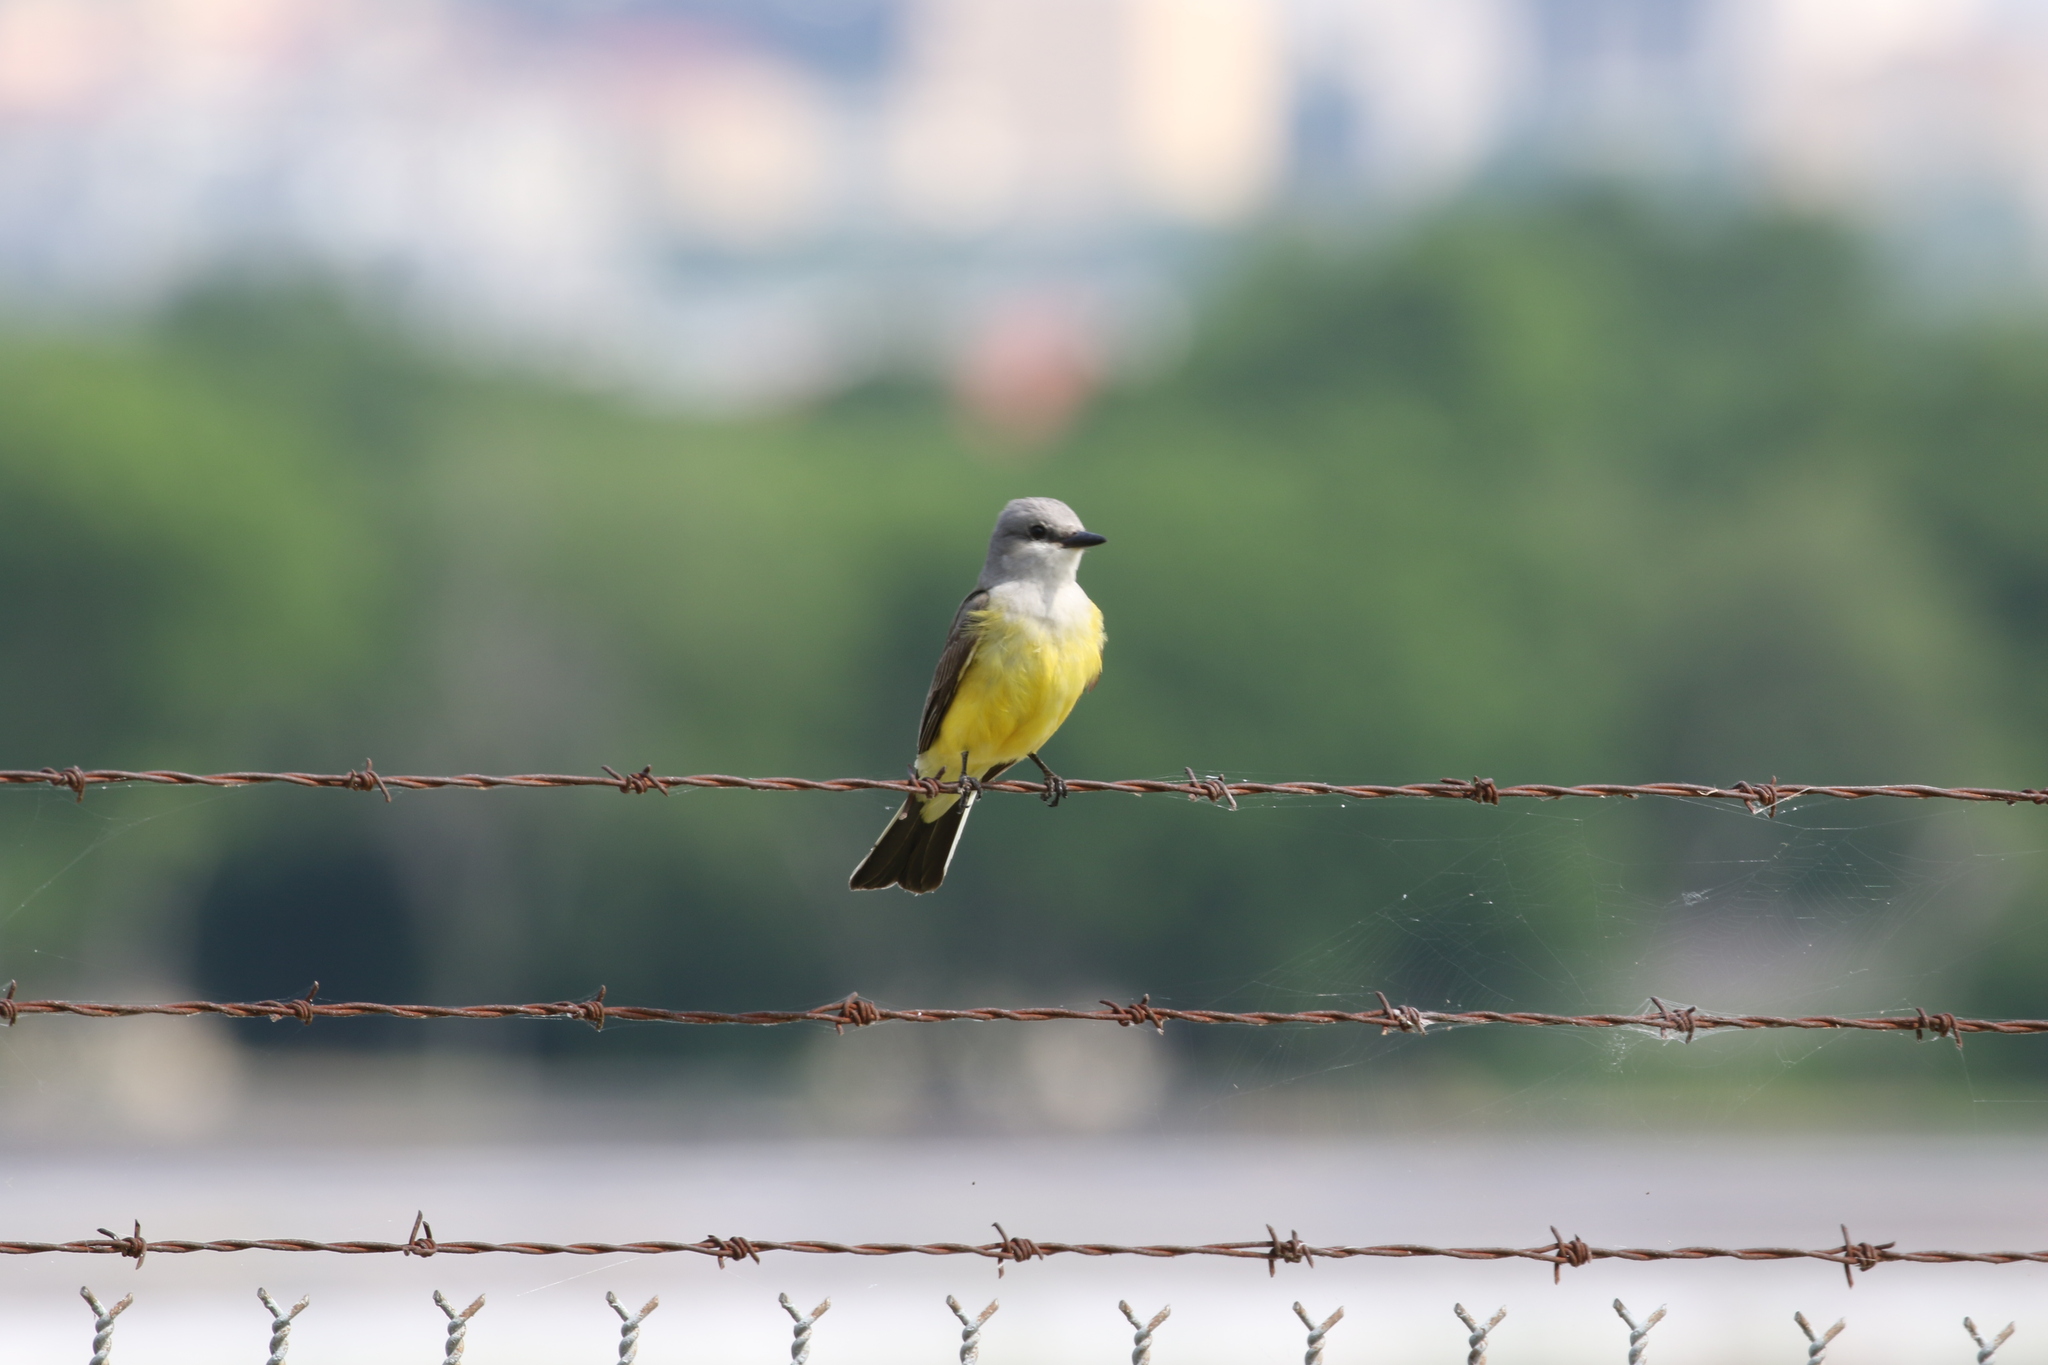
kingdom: Animalia
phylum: Chordata
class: Aves
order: Passeriformes
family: Tyrannidae
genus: Tyrannus
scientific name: Tyrannus verticalis
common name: Western kingbird
